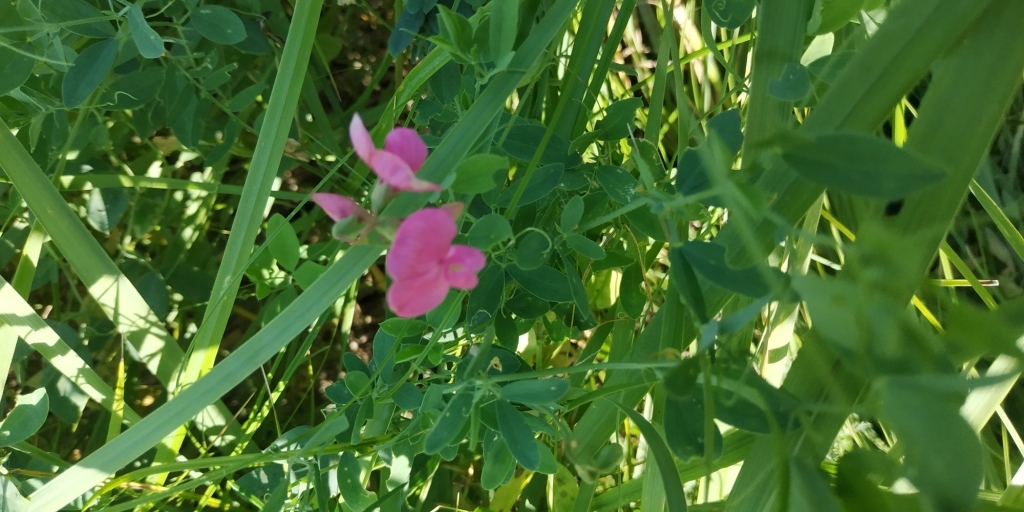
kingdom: Plantae
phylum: Tracheophyta
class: Magnoliopsida
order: Fabales
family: Fabaceae
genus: Lathyrus
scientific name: Lathyrus tuberosus
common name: Tuberous pea
